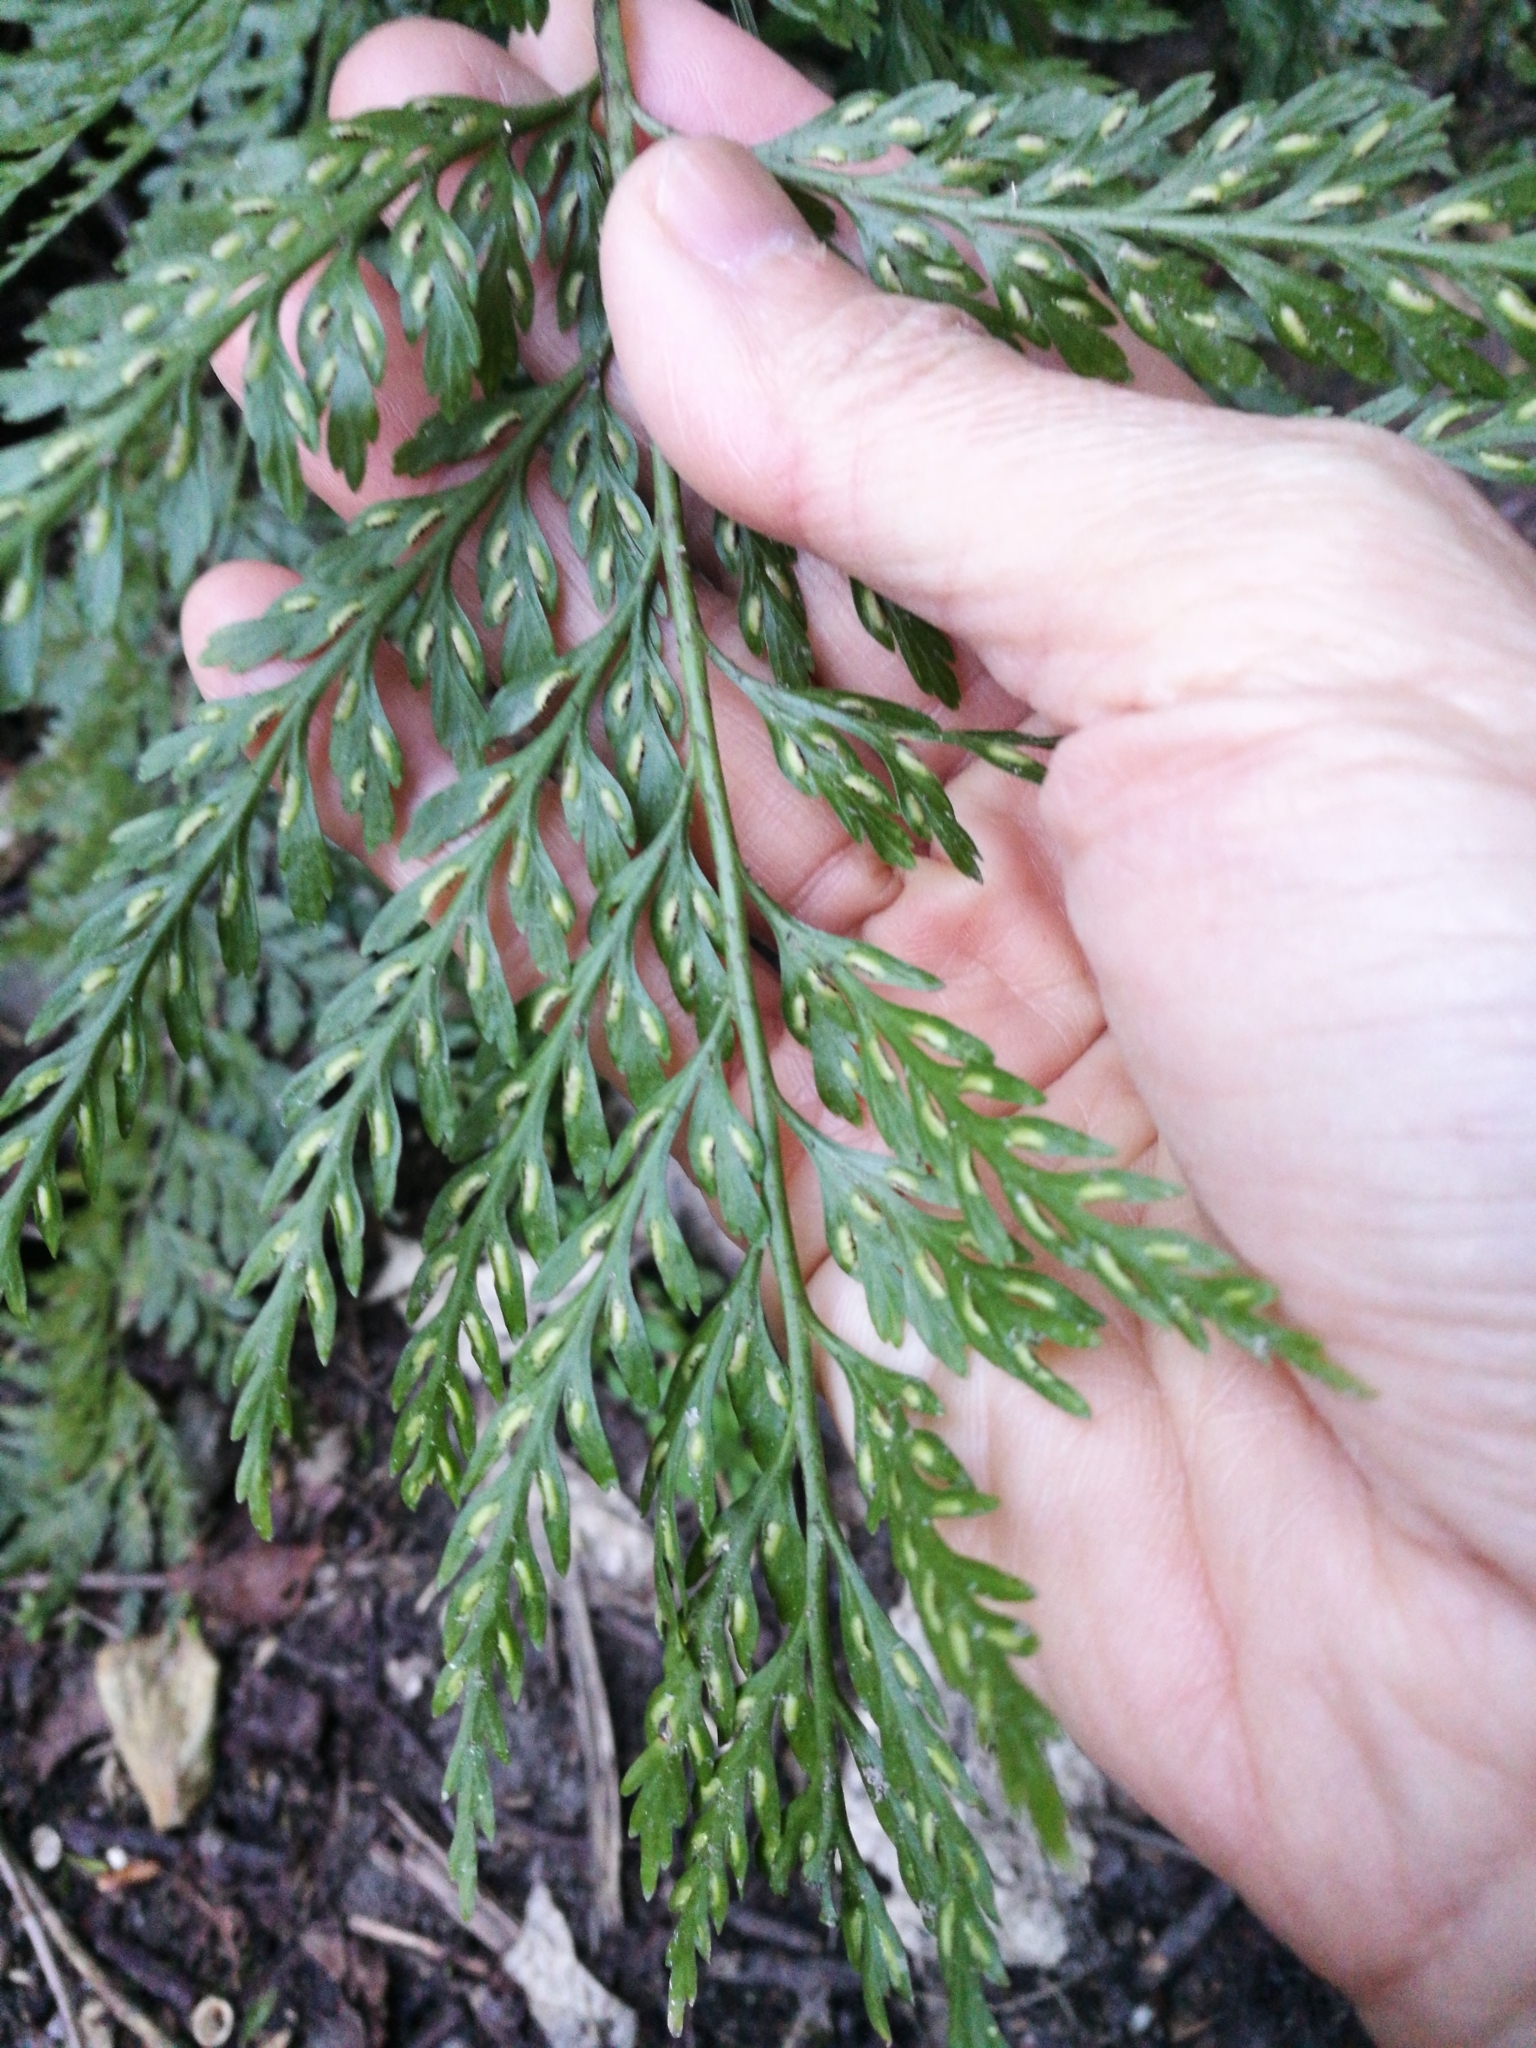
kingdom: Plantae
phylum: Tracheophyta
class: Polypodiopsida
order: Polypodiales
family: Aspleniaceae
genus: Asplenium
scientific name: Asplenium
